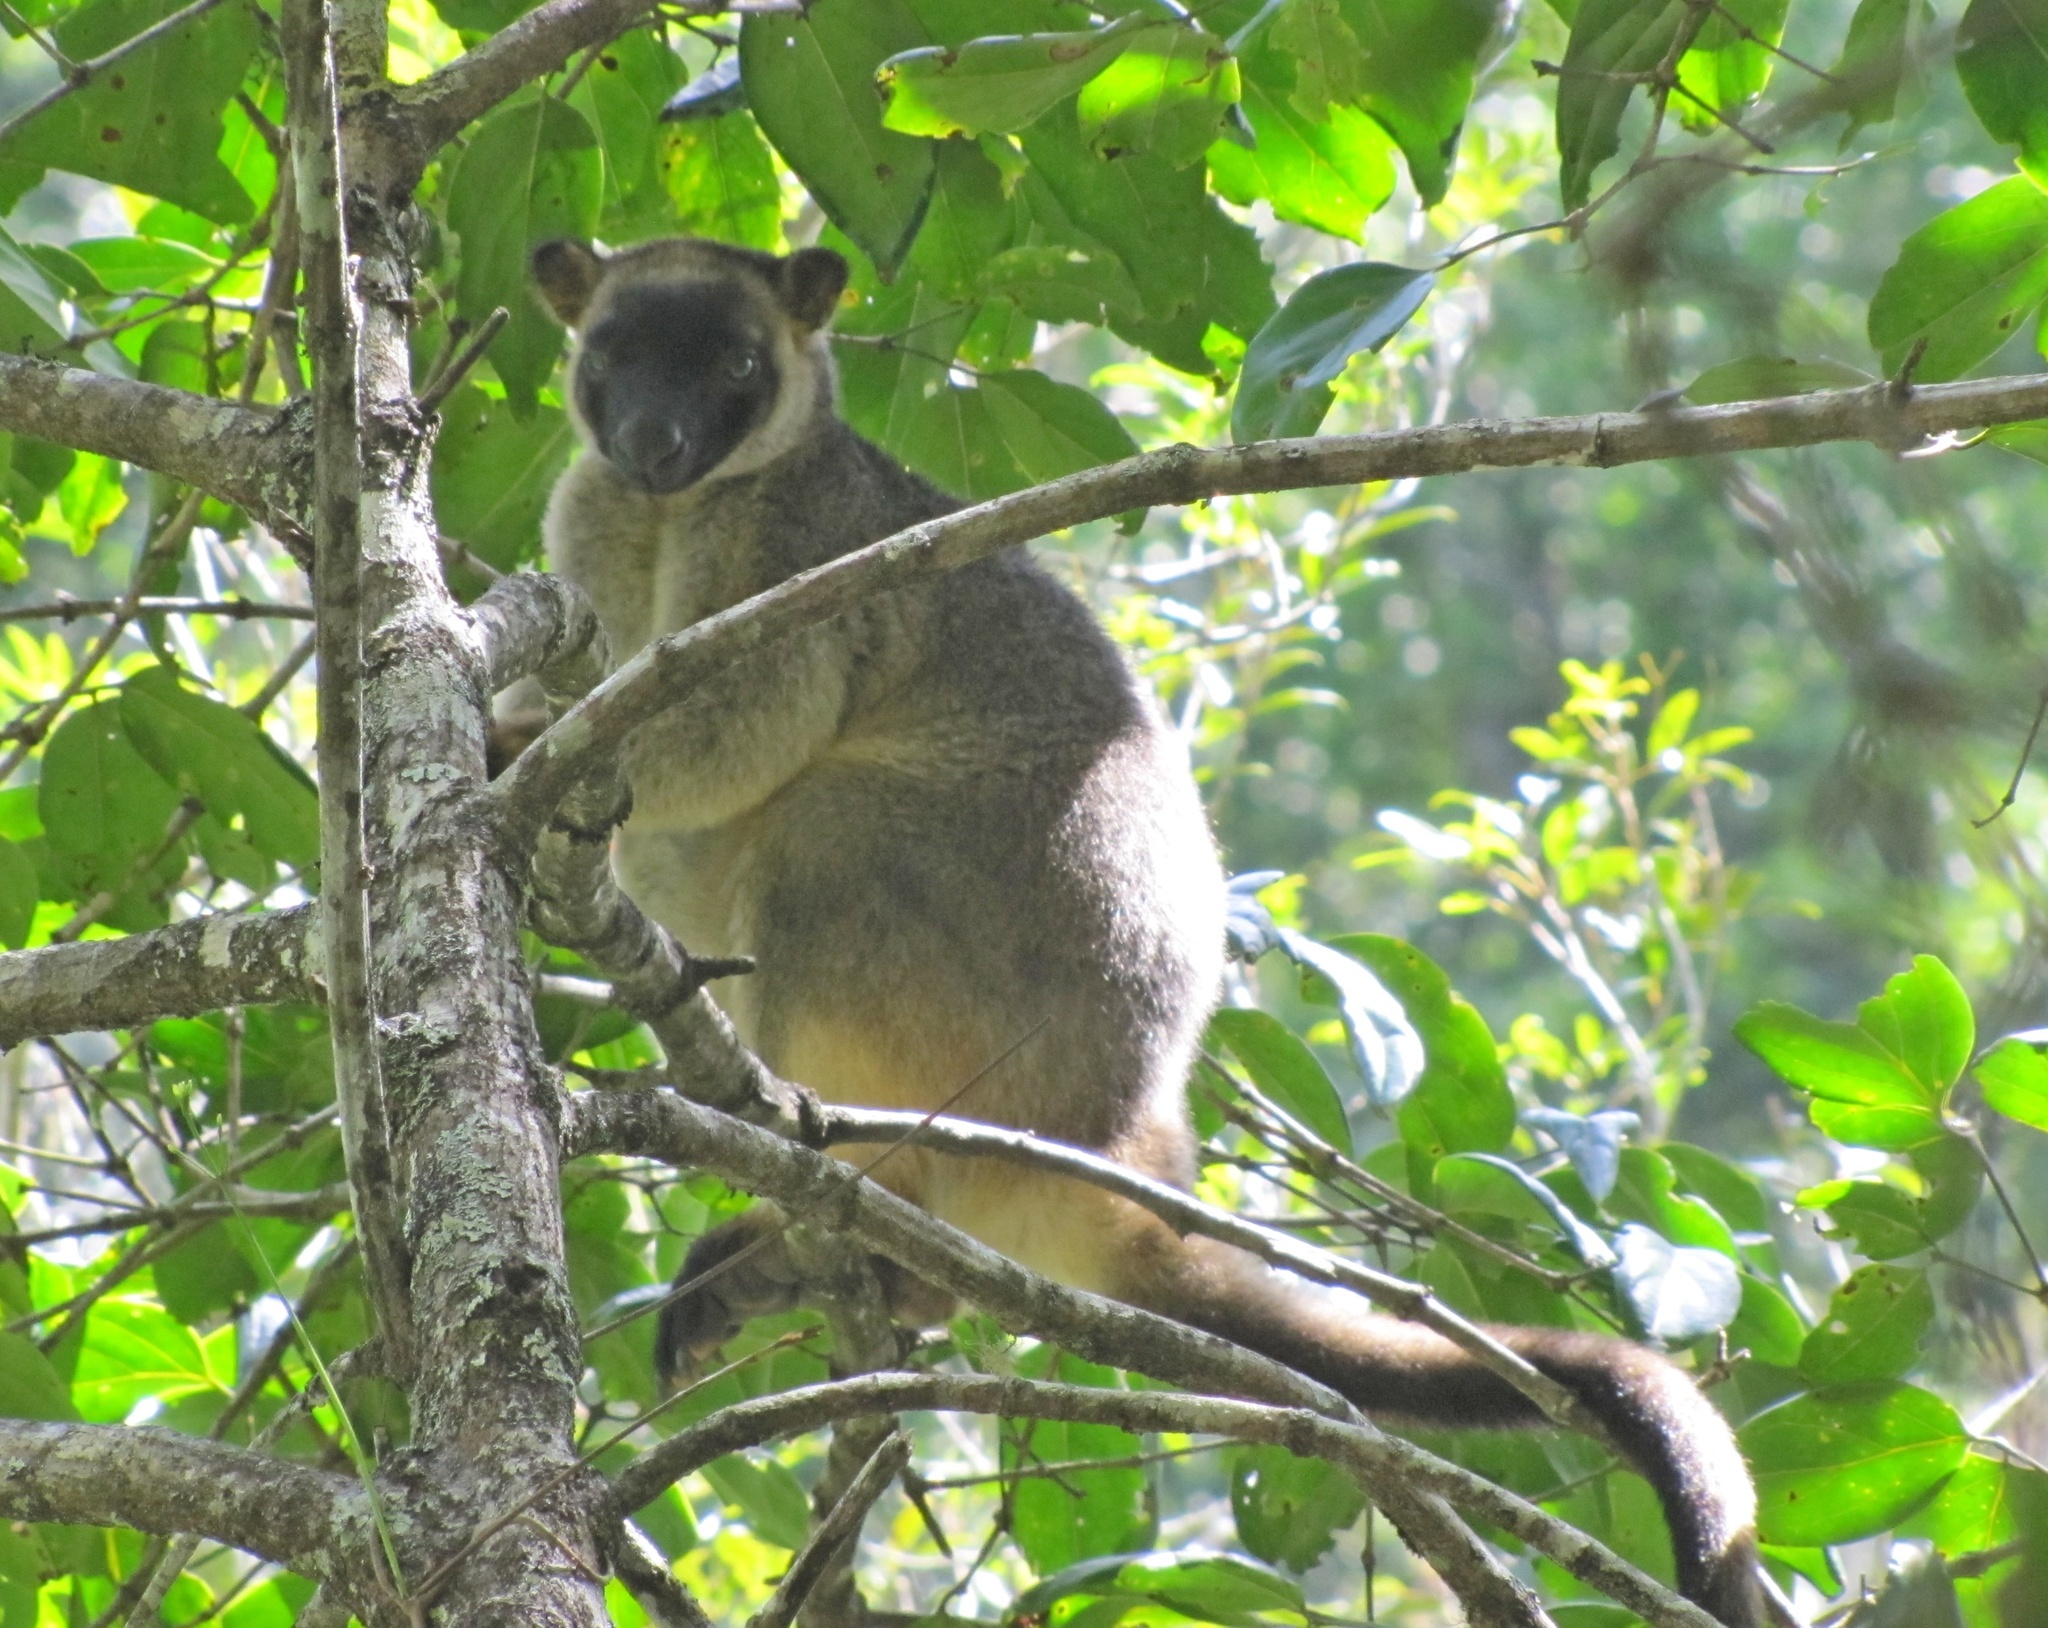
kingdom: Animalia
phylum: Chordata
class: Mammalia
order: Diprotodontia
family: Macropodidae
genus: Dendrolagus
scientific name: Dendrolagus lumholtzi
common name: Lumholtz's tree kangaroo
